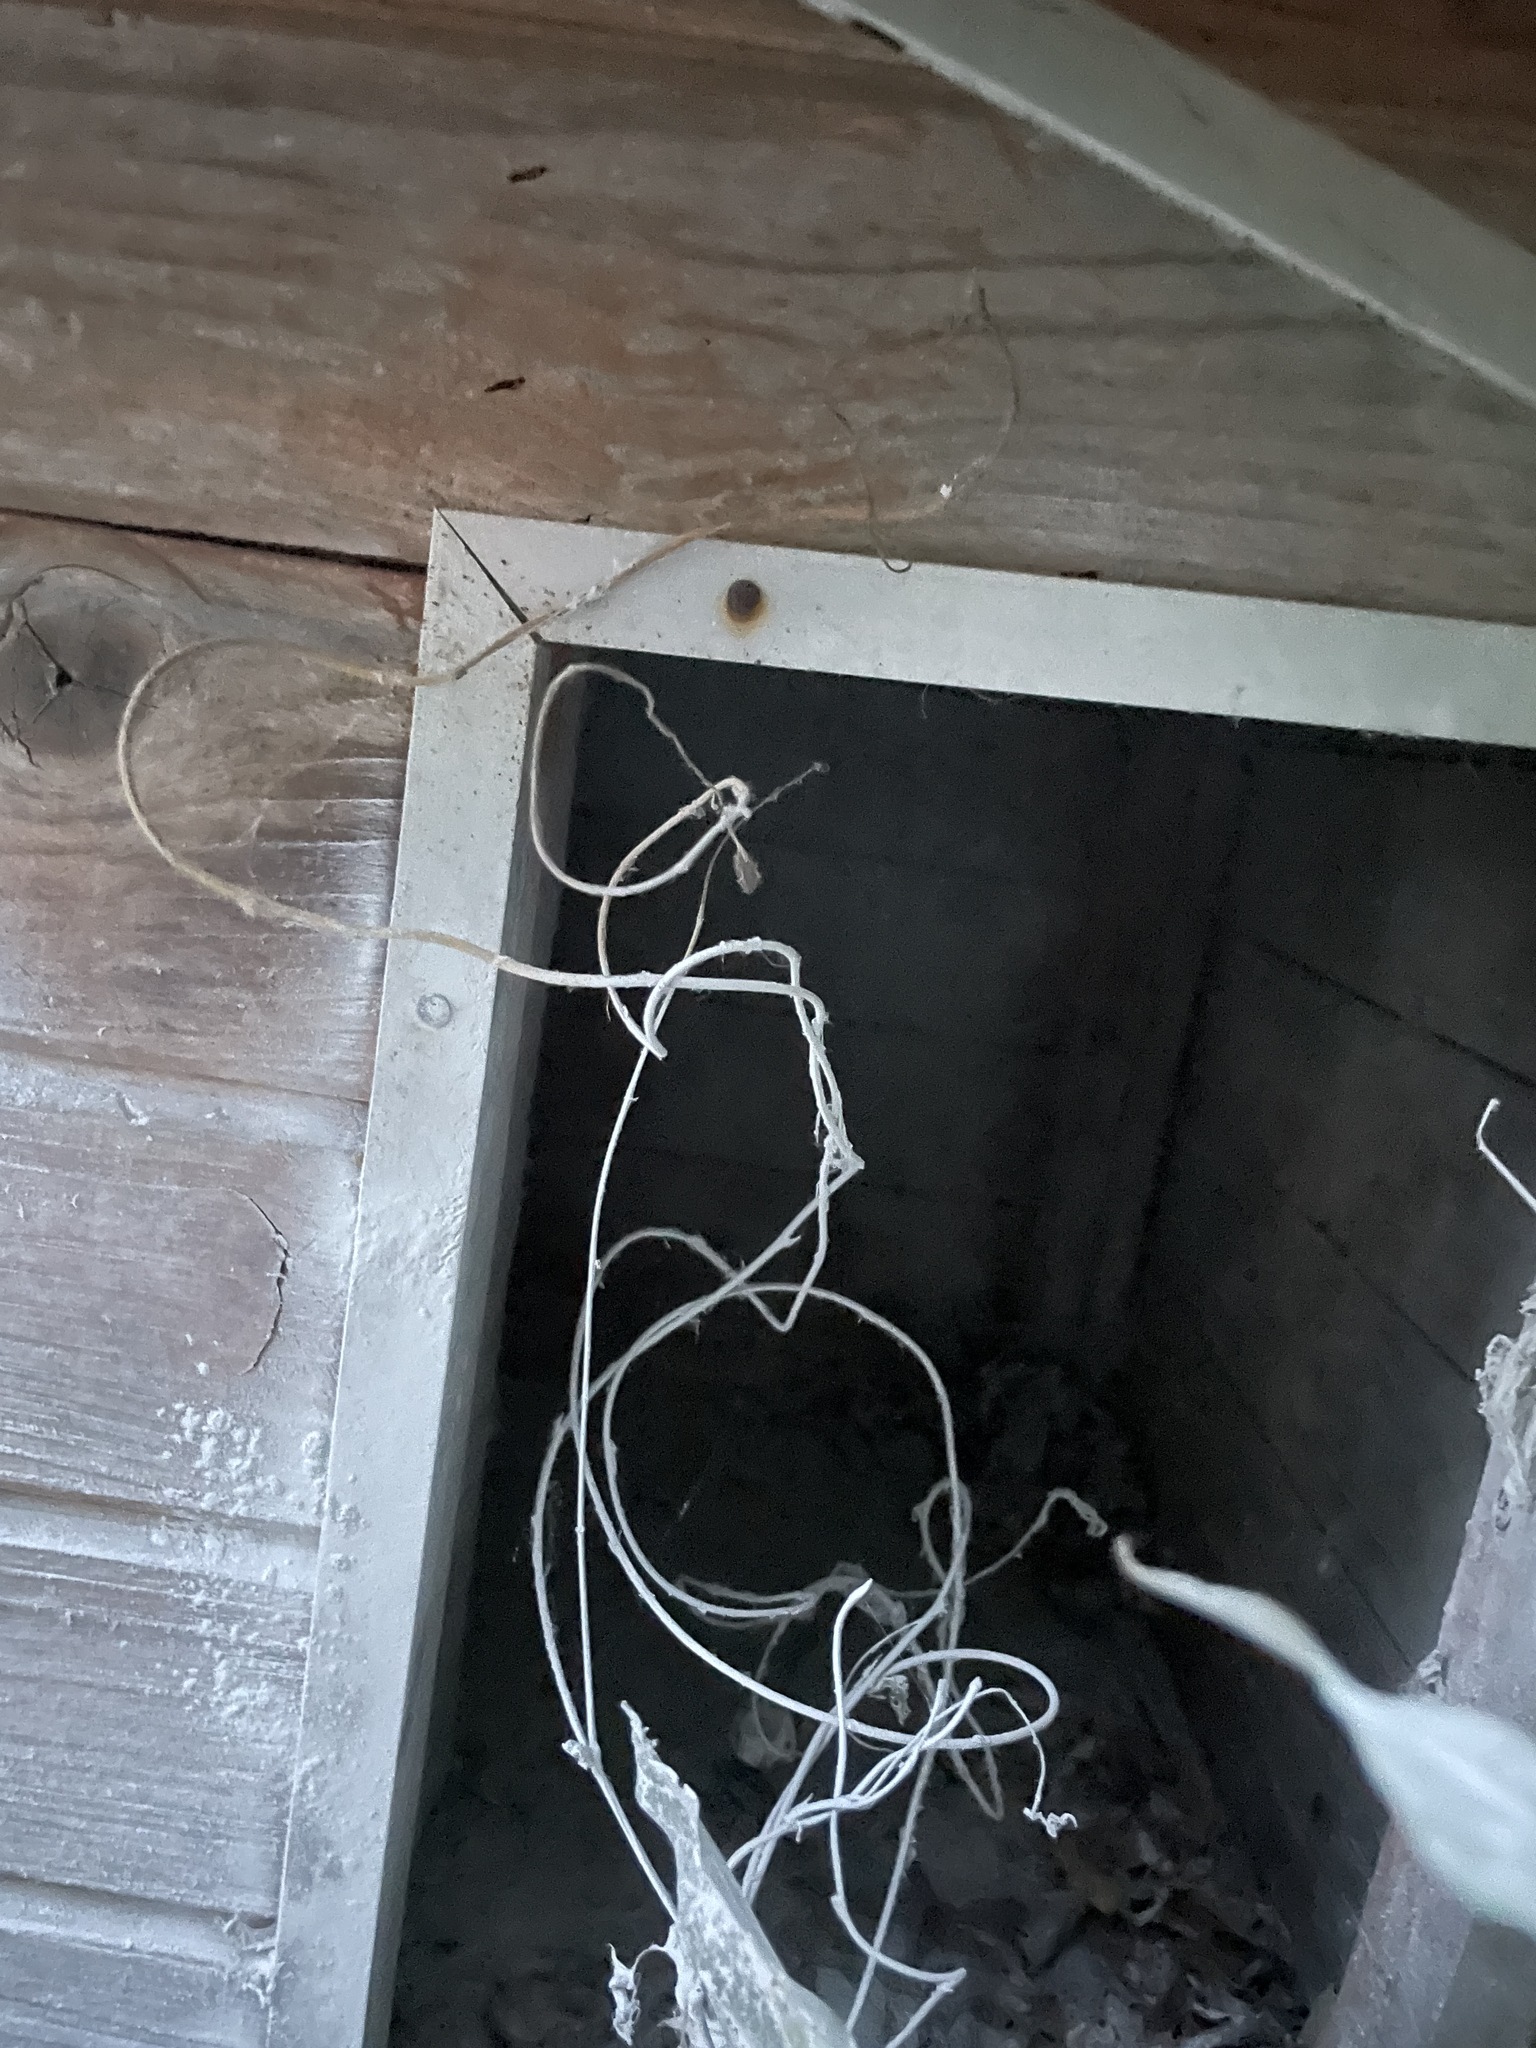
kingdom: Animalia
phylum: Arthropoda
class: Insecta
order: Hymenoptera
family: Vespidae
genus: Vespa
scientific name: Vespa velutina
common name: Asian hornet
